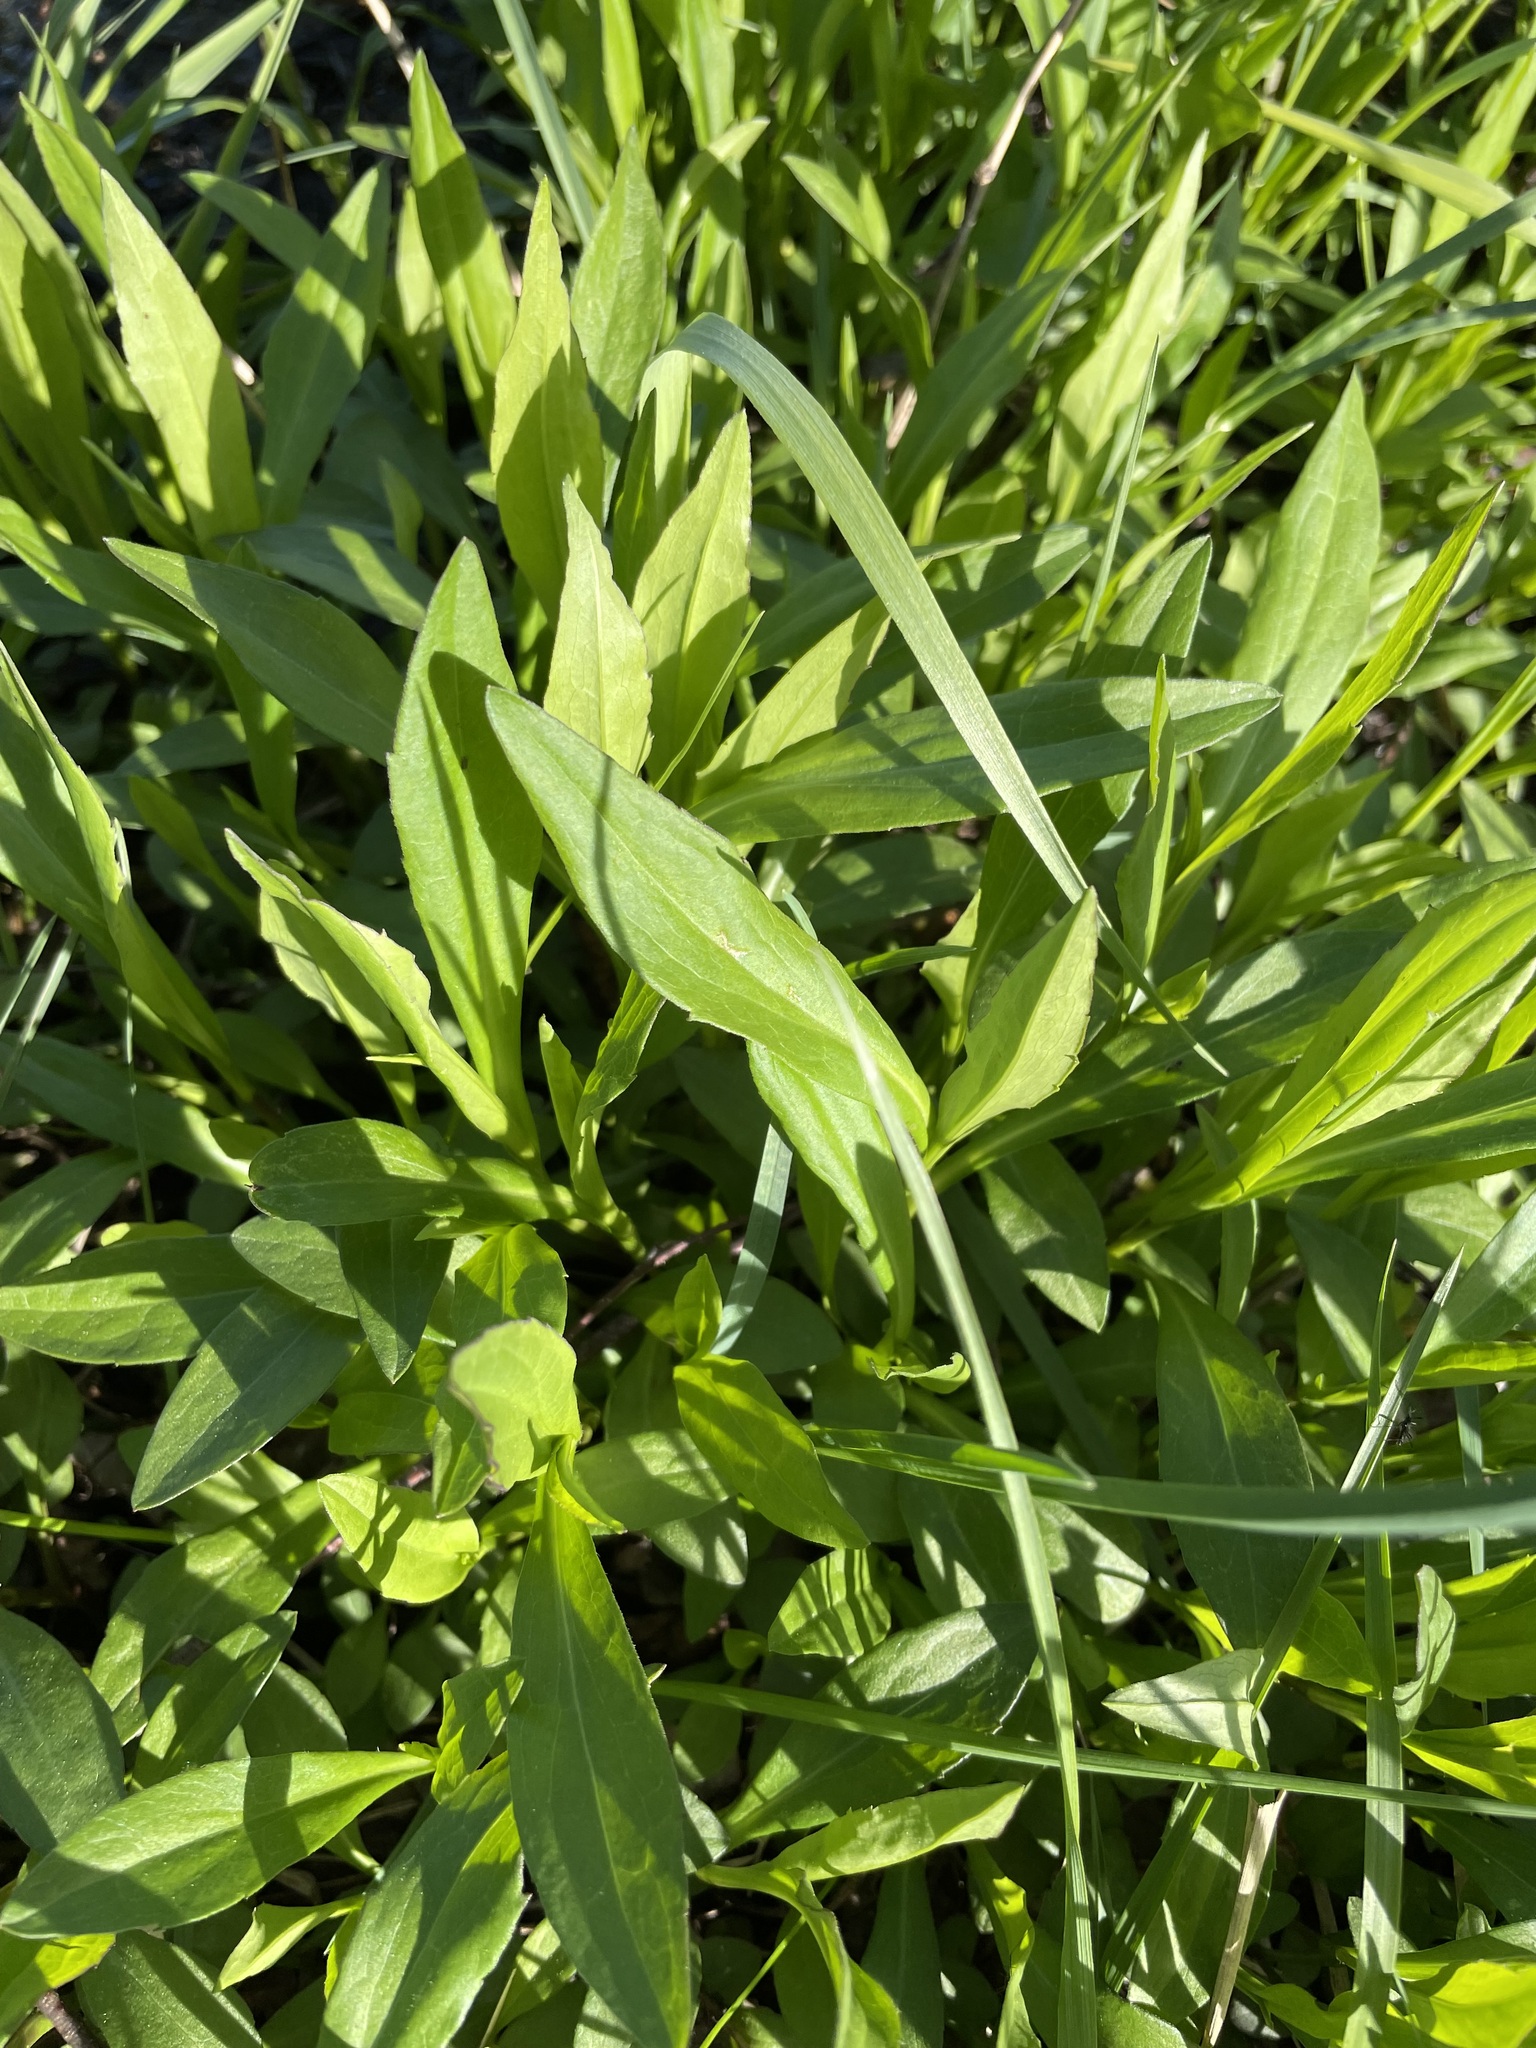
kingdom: Plantae
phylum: Tracheophyta
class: Magnoliopsida
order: Asterales
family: Asteraceae
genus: Symphyotrichum
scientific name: Symphyotrichum salignum
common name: Common michaelmas daisy
